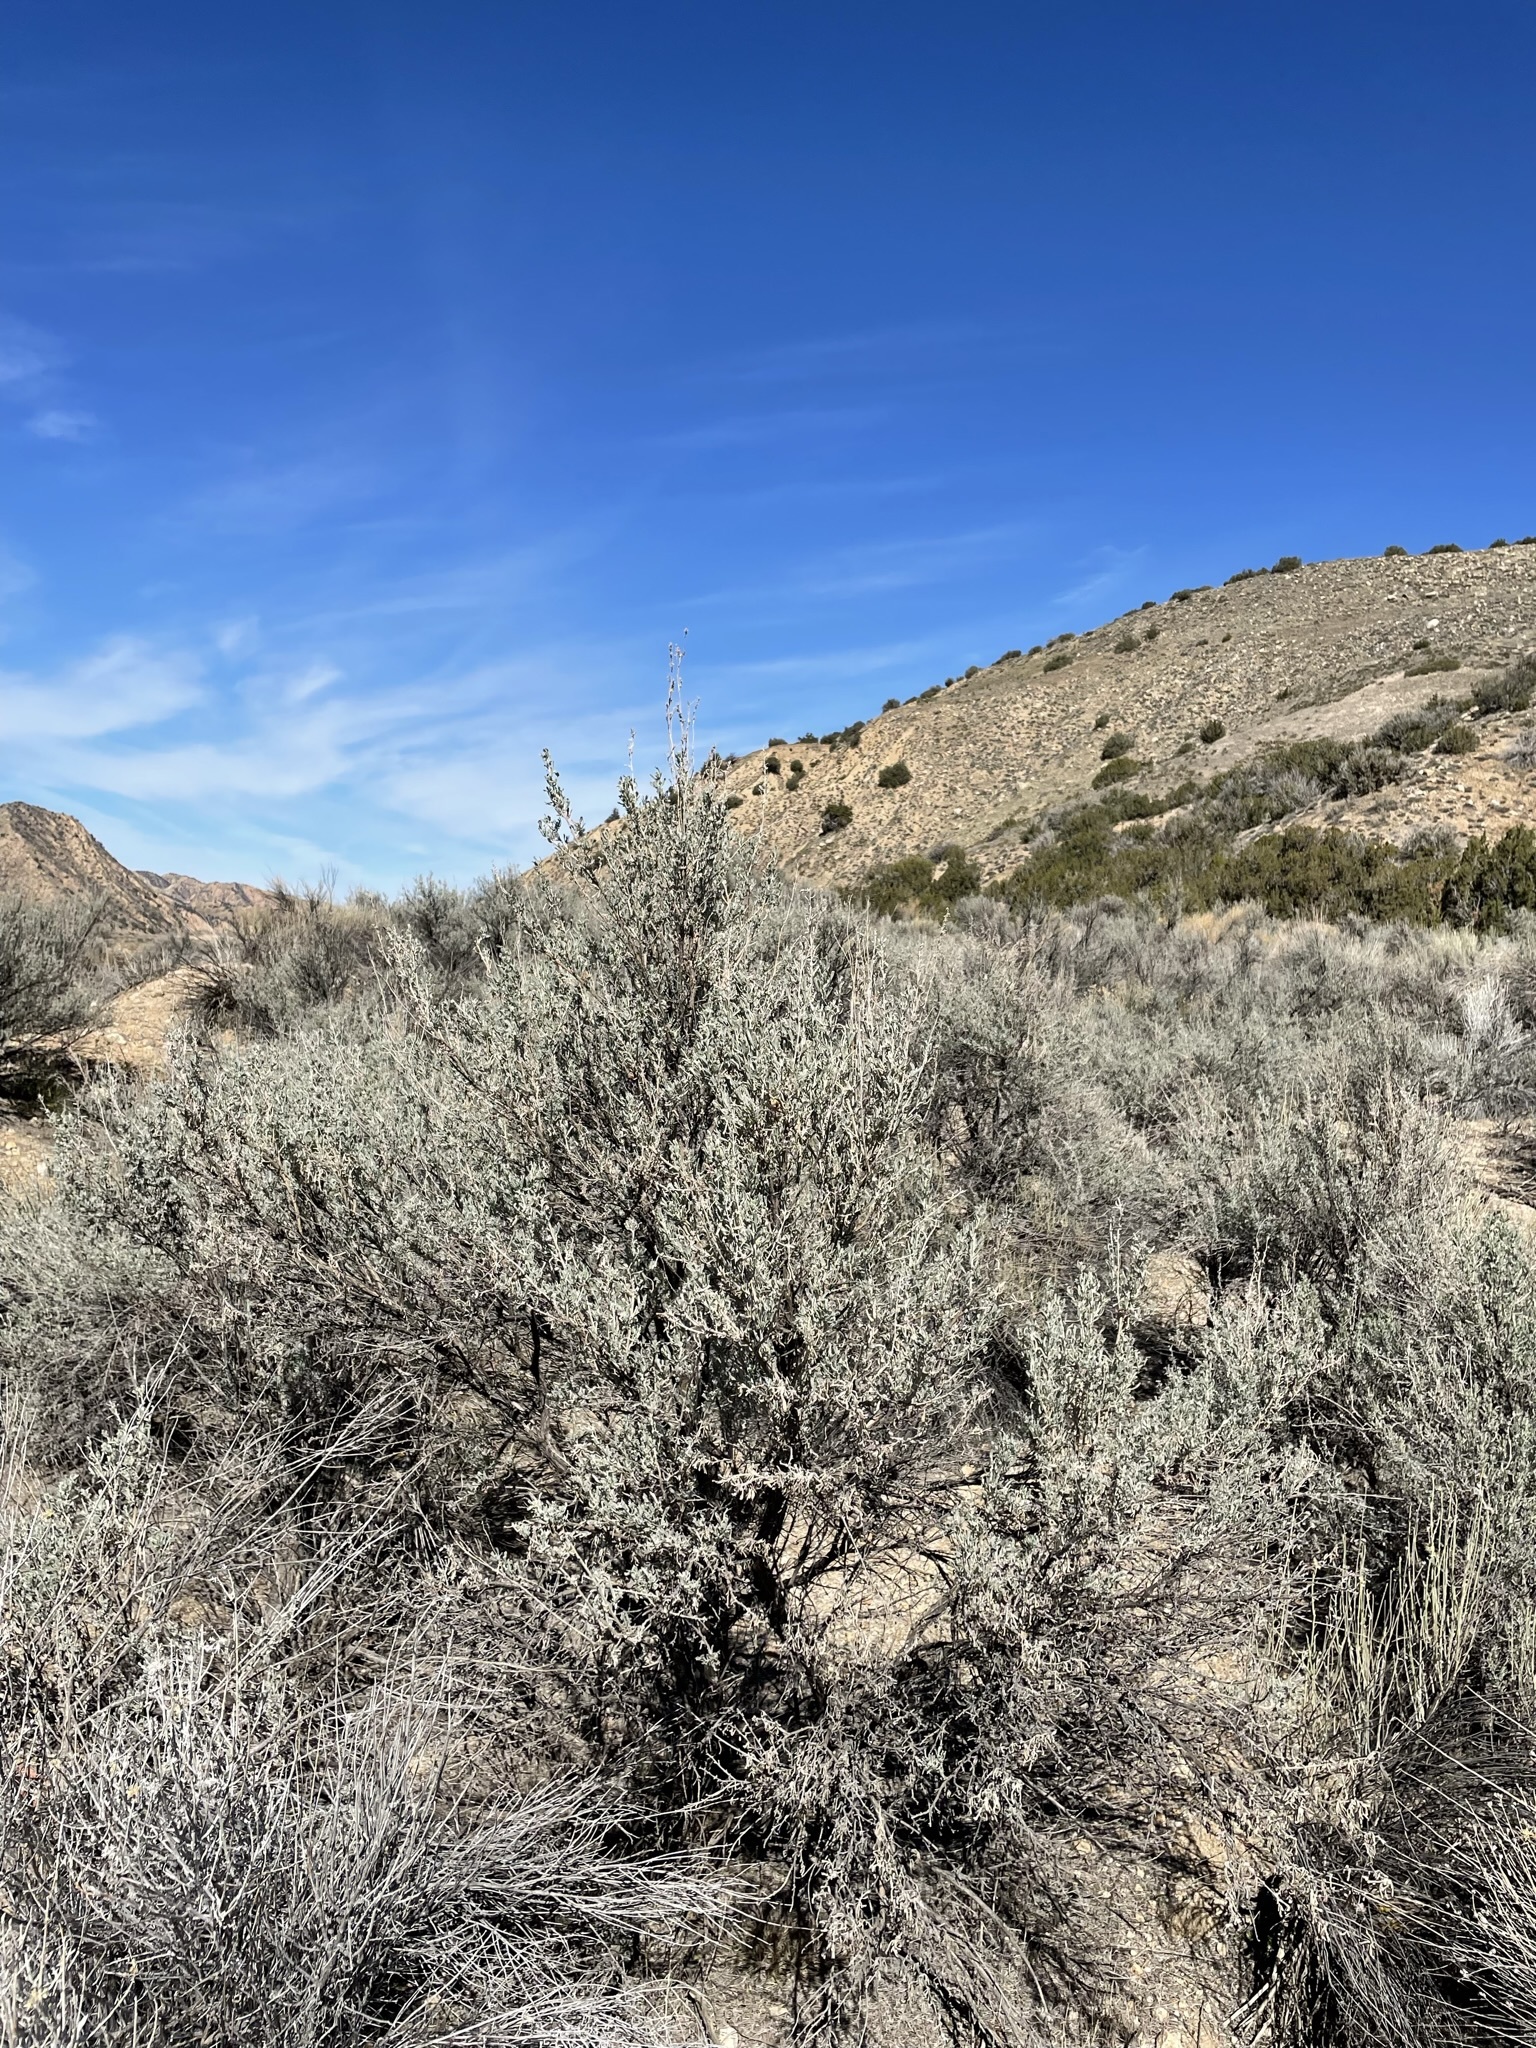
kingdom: Plantae
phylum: Tracheophyta
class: Magnoliopsida
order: Asterales
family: Asteraceae
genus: Artemisia
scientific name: Artemisia tridentata
